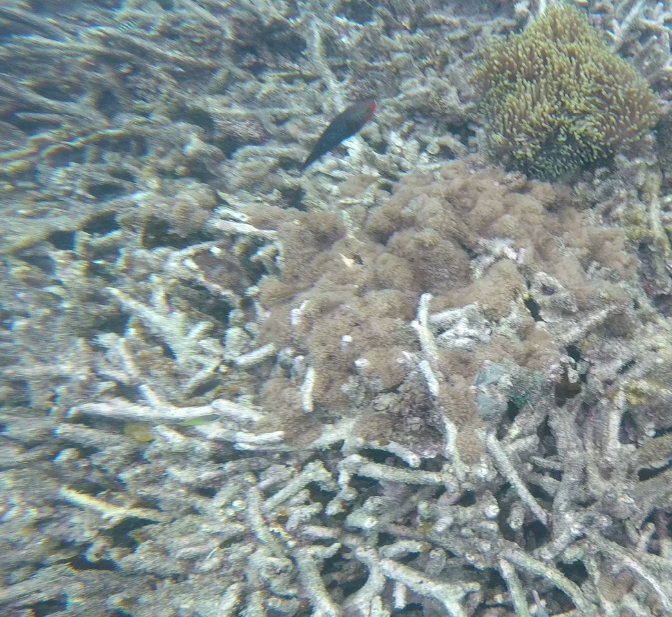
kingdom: Animalia
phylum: Chordata
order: Perciformes
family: Scaridae
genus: Scarus
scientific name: Scarus niger
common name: Dusky parrotfish
